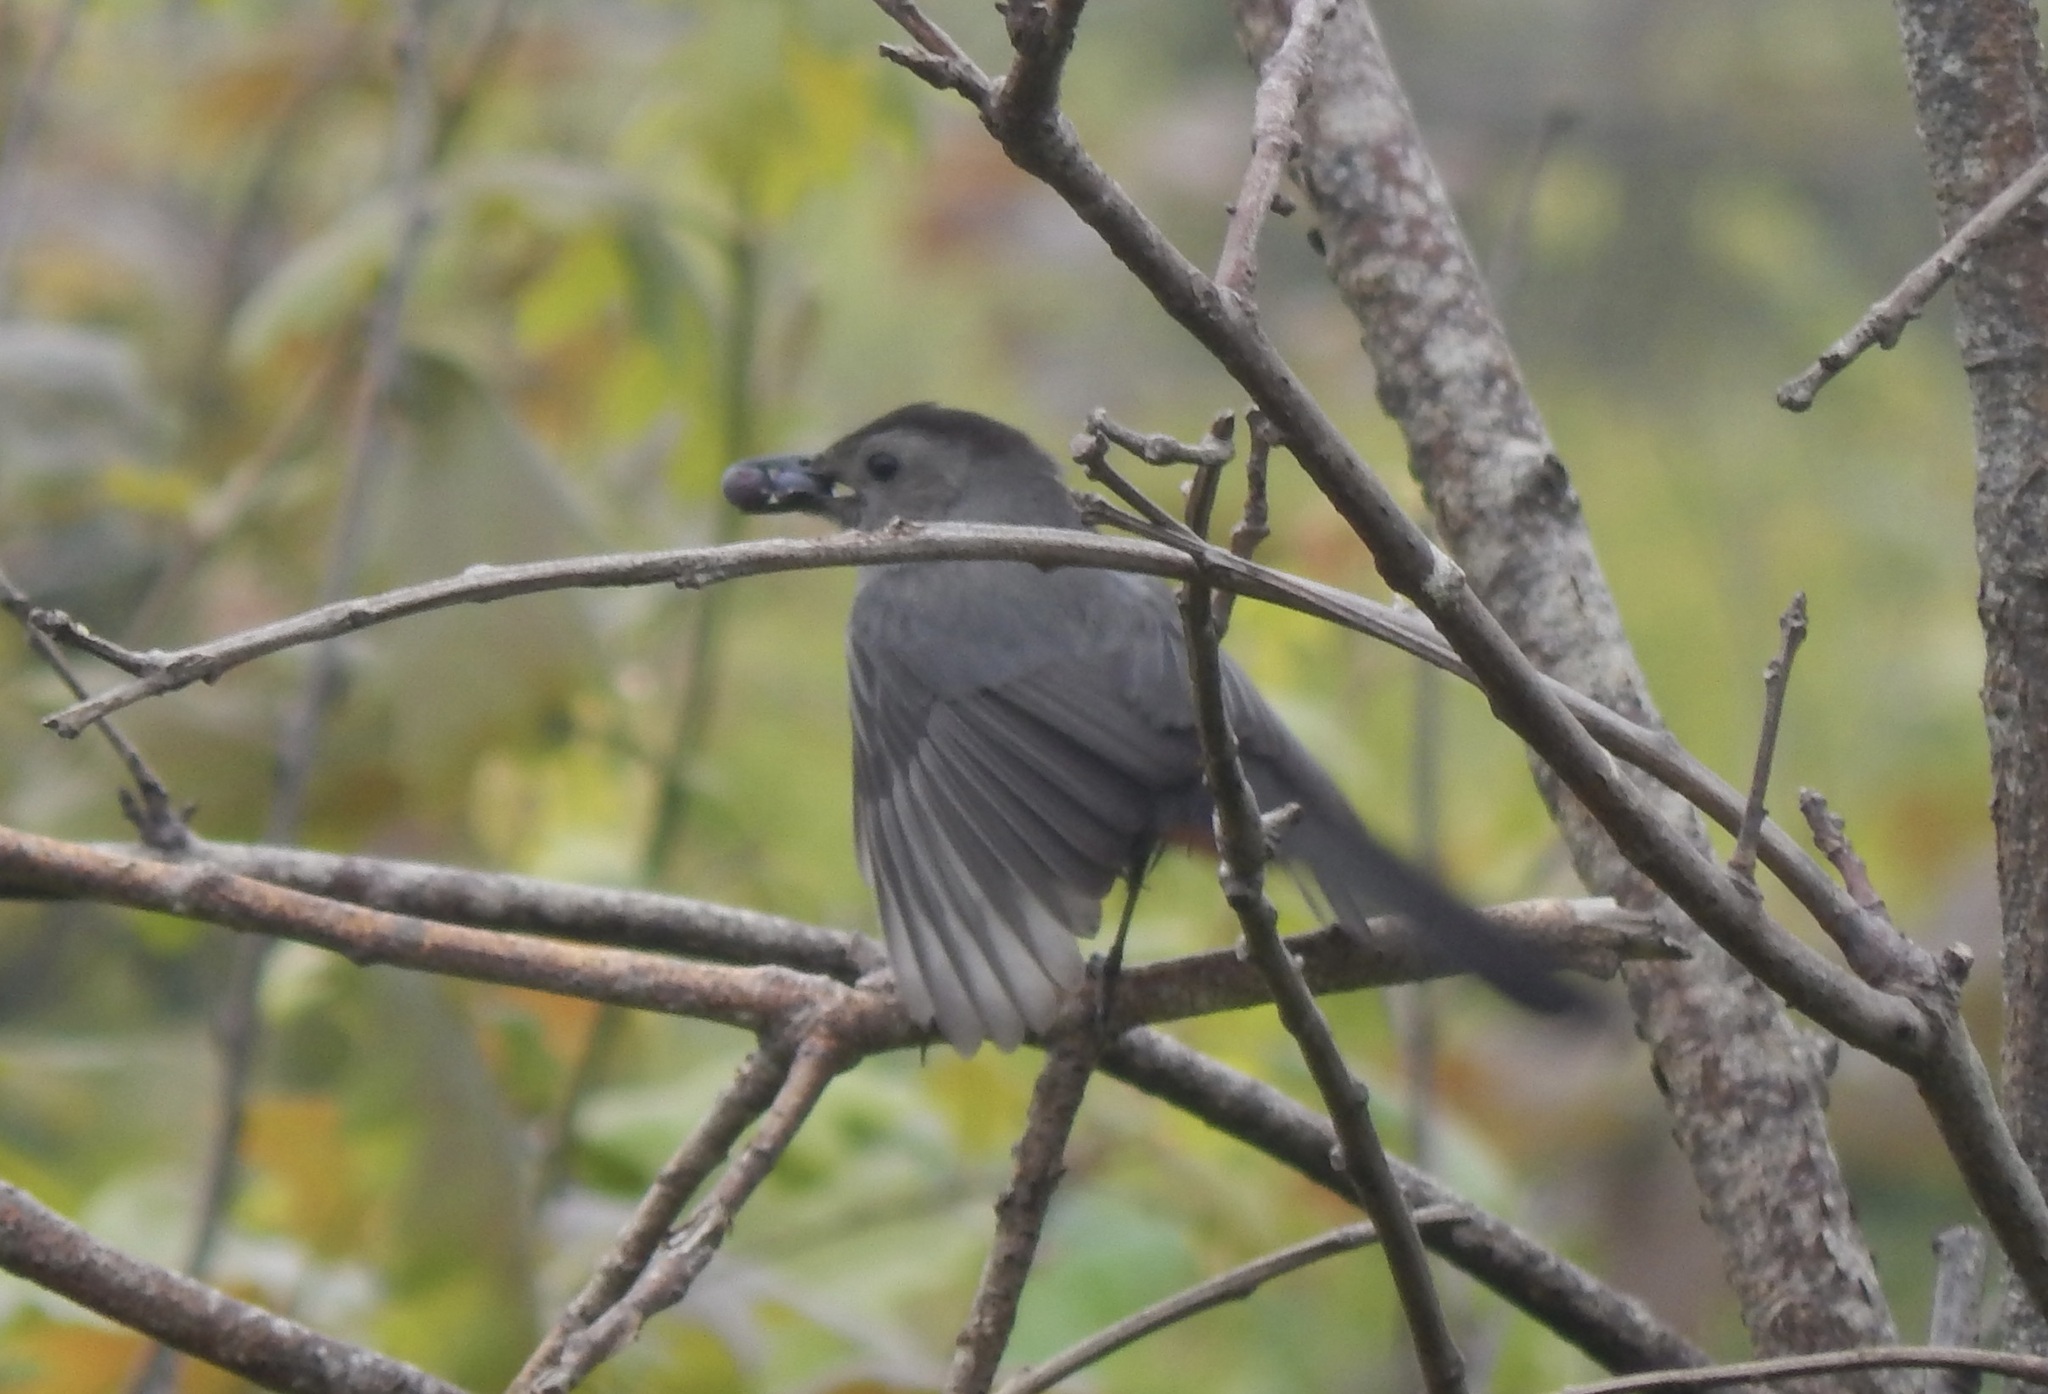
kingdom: Animalia
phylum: Chordata
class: Aves
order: Passeriformes
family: Mimidae
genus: Dumetella
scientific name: Dumetella carolinensis
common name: Gray catbird
